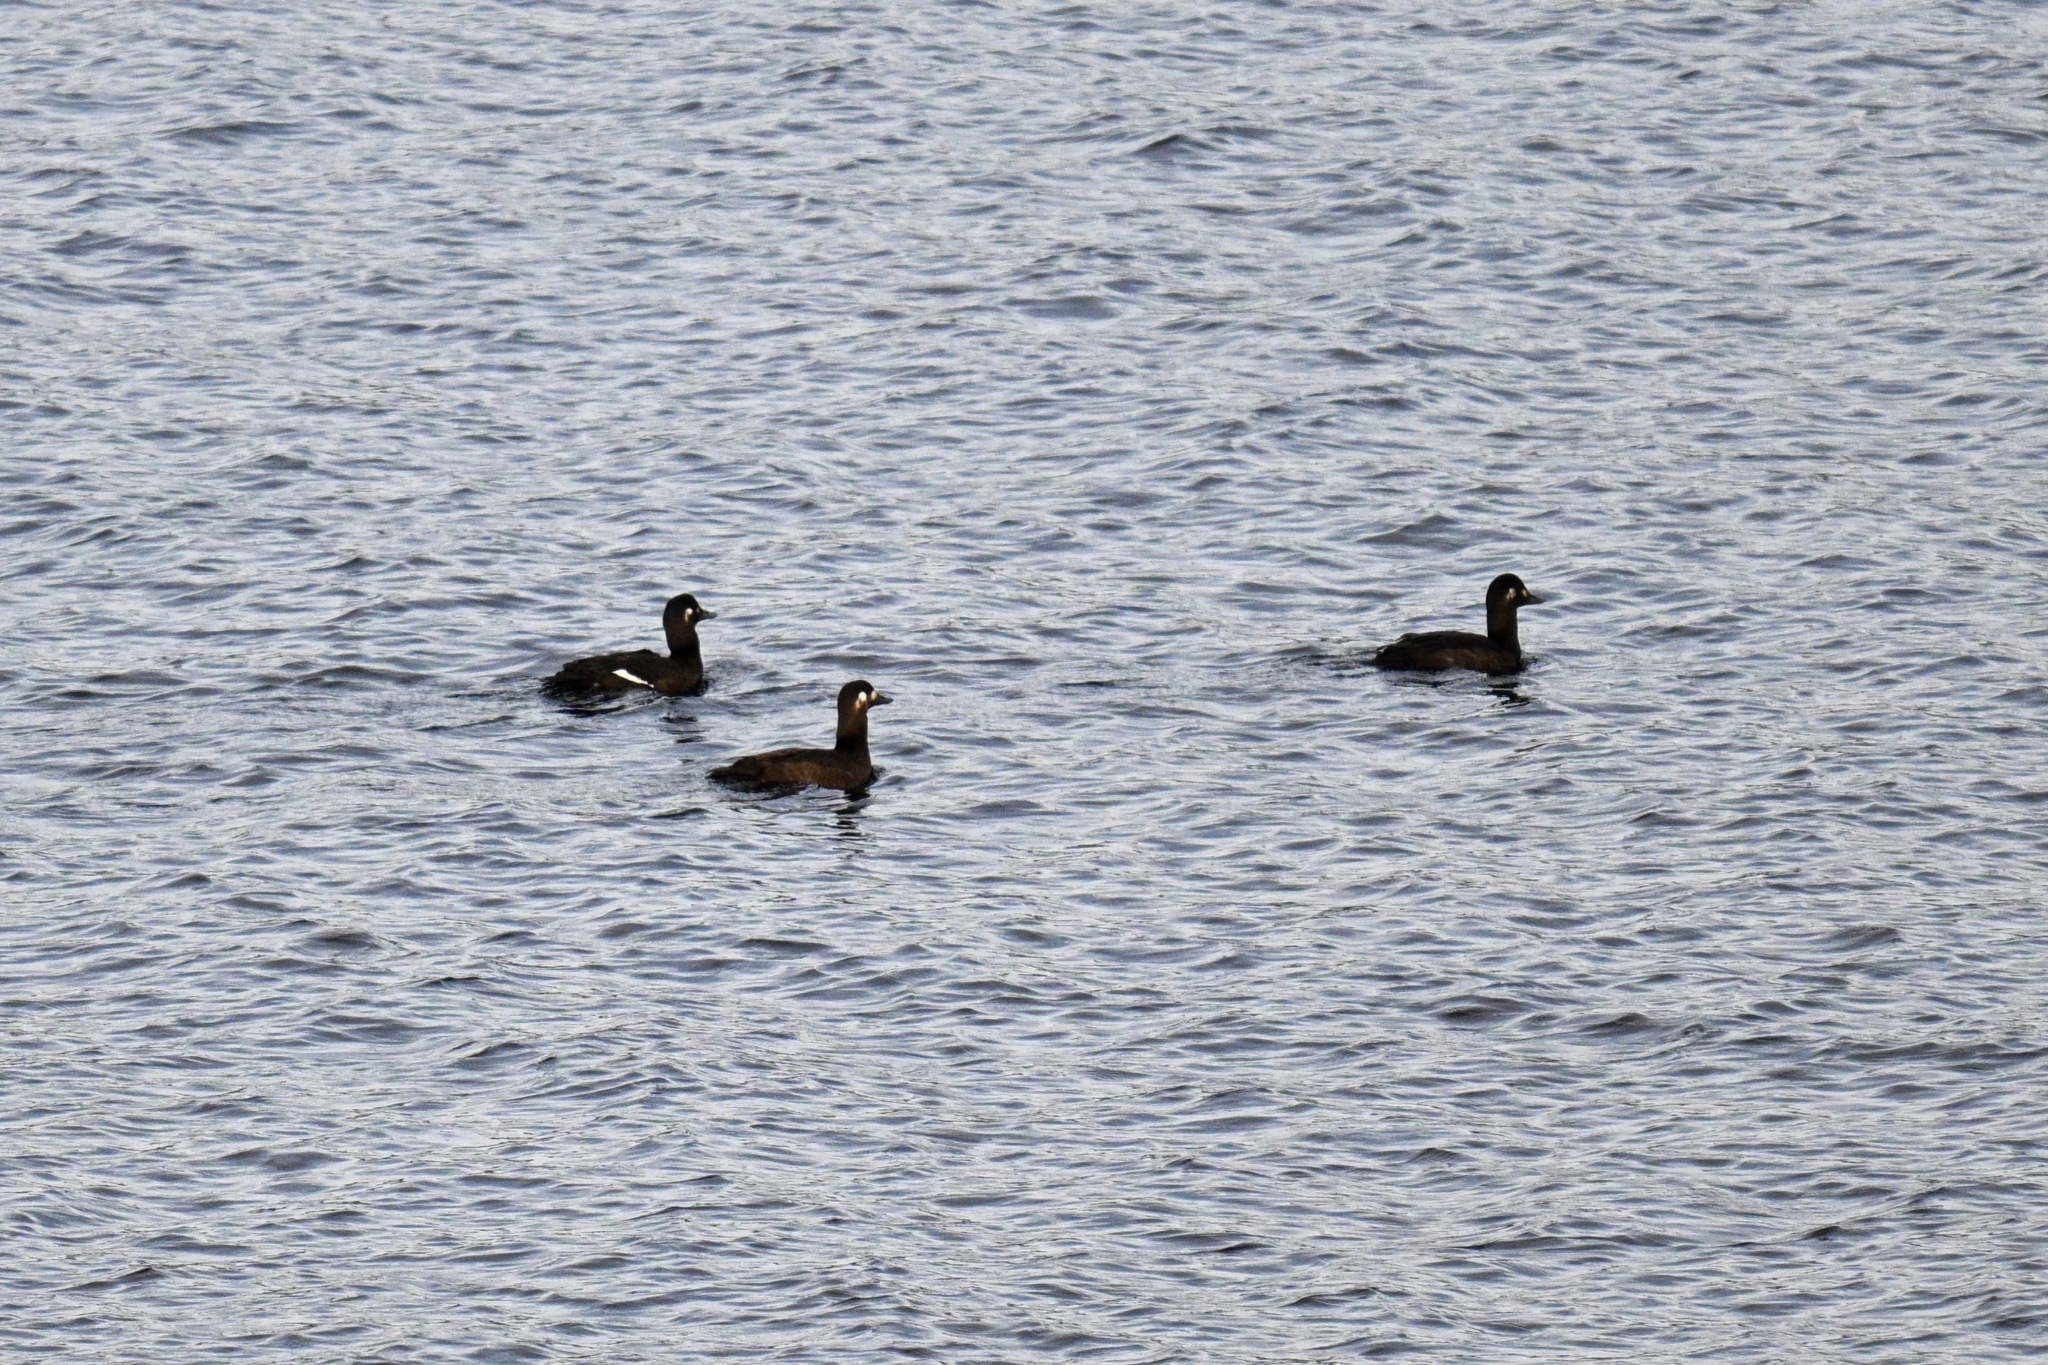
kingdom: Animalia
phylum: Chordata
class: Aves
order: Anseriformes
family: Anatidae
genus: Melanitta
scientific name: Melanitta fusca
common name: Velvet scoter
